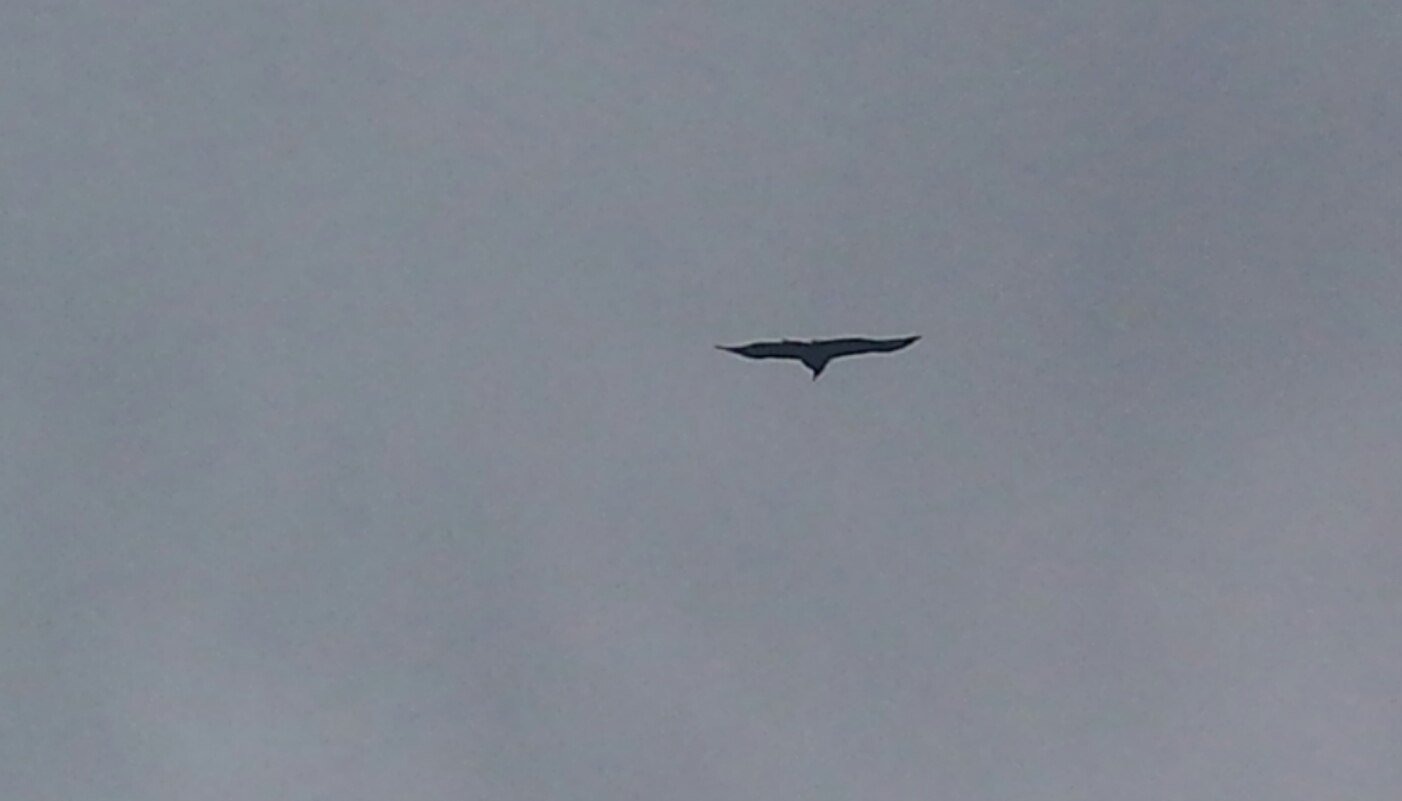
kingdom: Animalia
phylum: Chordata
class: Aves
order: Accipitriformes
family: Cathartidae
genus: Coragyps
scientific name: Coragyps atratus
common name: Black vulture
